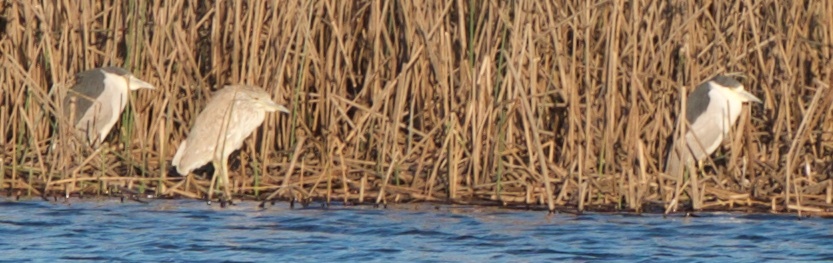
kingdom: Animalia
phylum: Chordata
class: Aves
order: Pelecaniformes
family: Ardeidae
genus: Nycticorax
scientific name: Nycticorax nycticorax
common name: Black-crowned night heron
